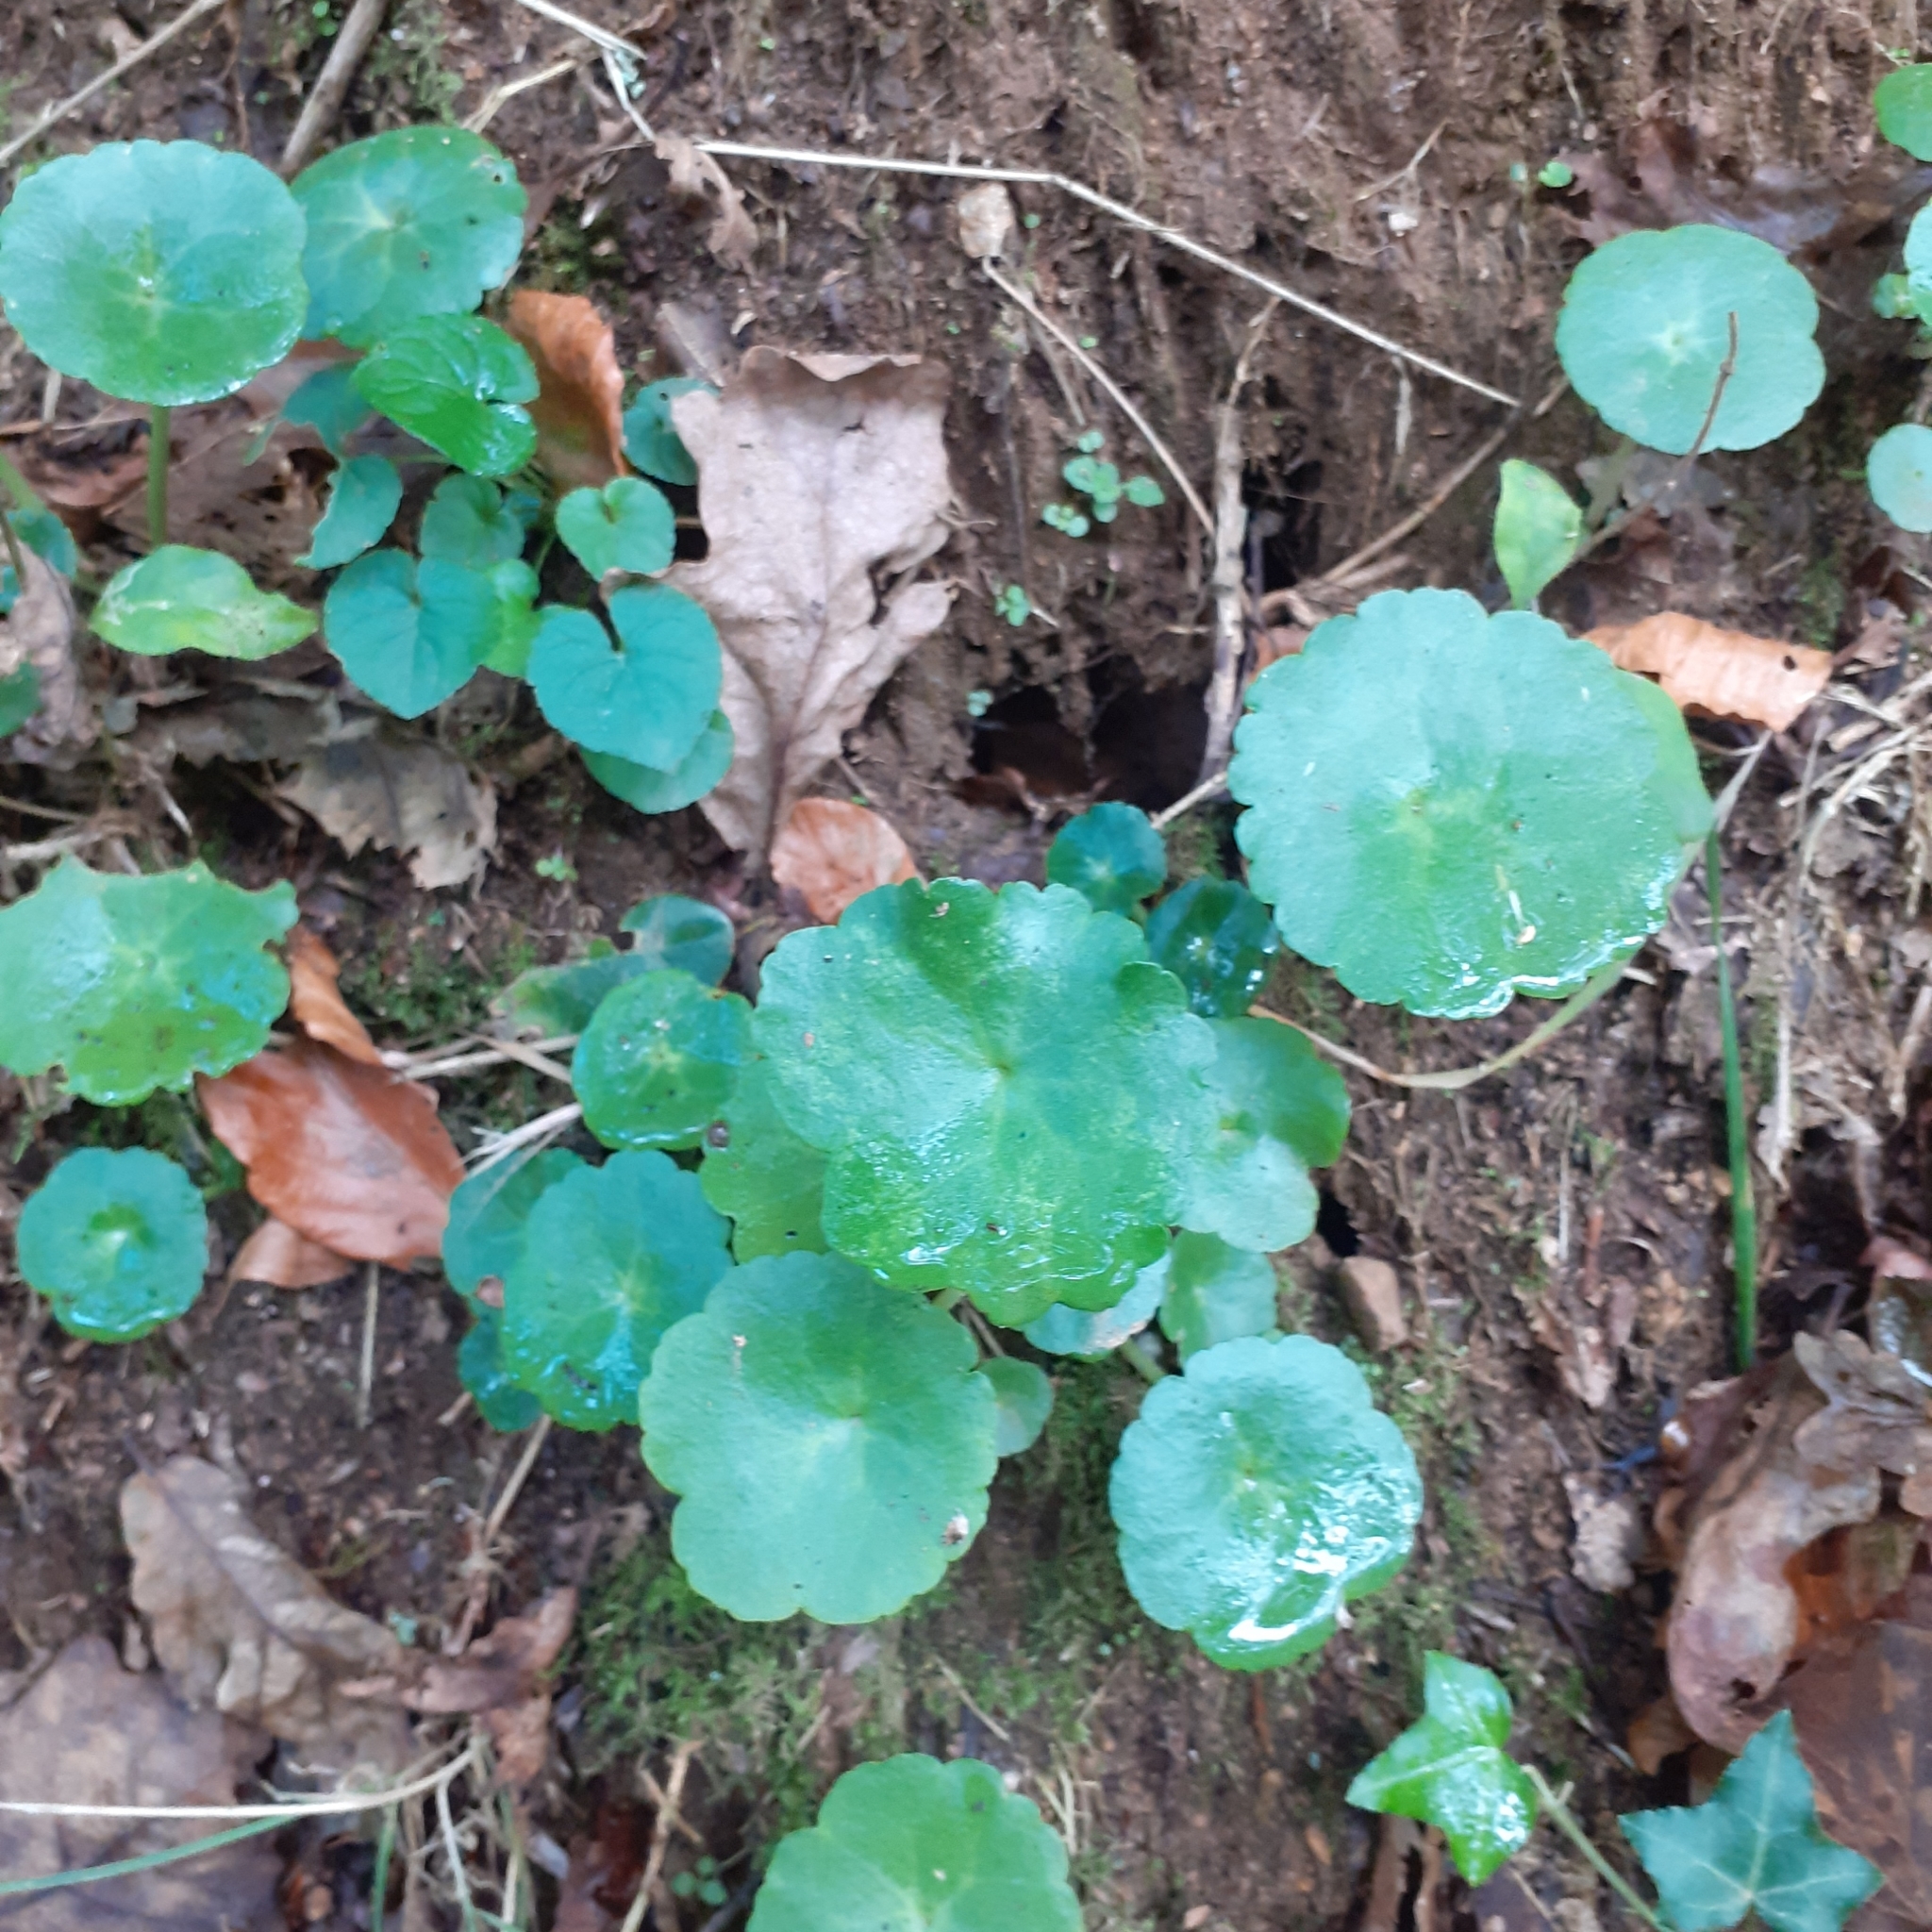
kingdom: Plantae
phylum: Tracheophyta
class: Magnoliopsida
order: Saxifragales
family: Crassulaceae
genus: Umbilicus
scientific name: Umbilicus rupestris
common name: Navelwort
